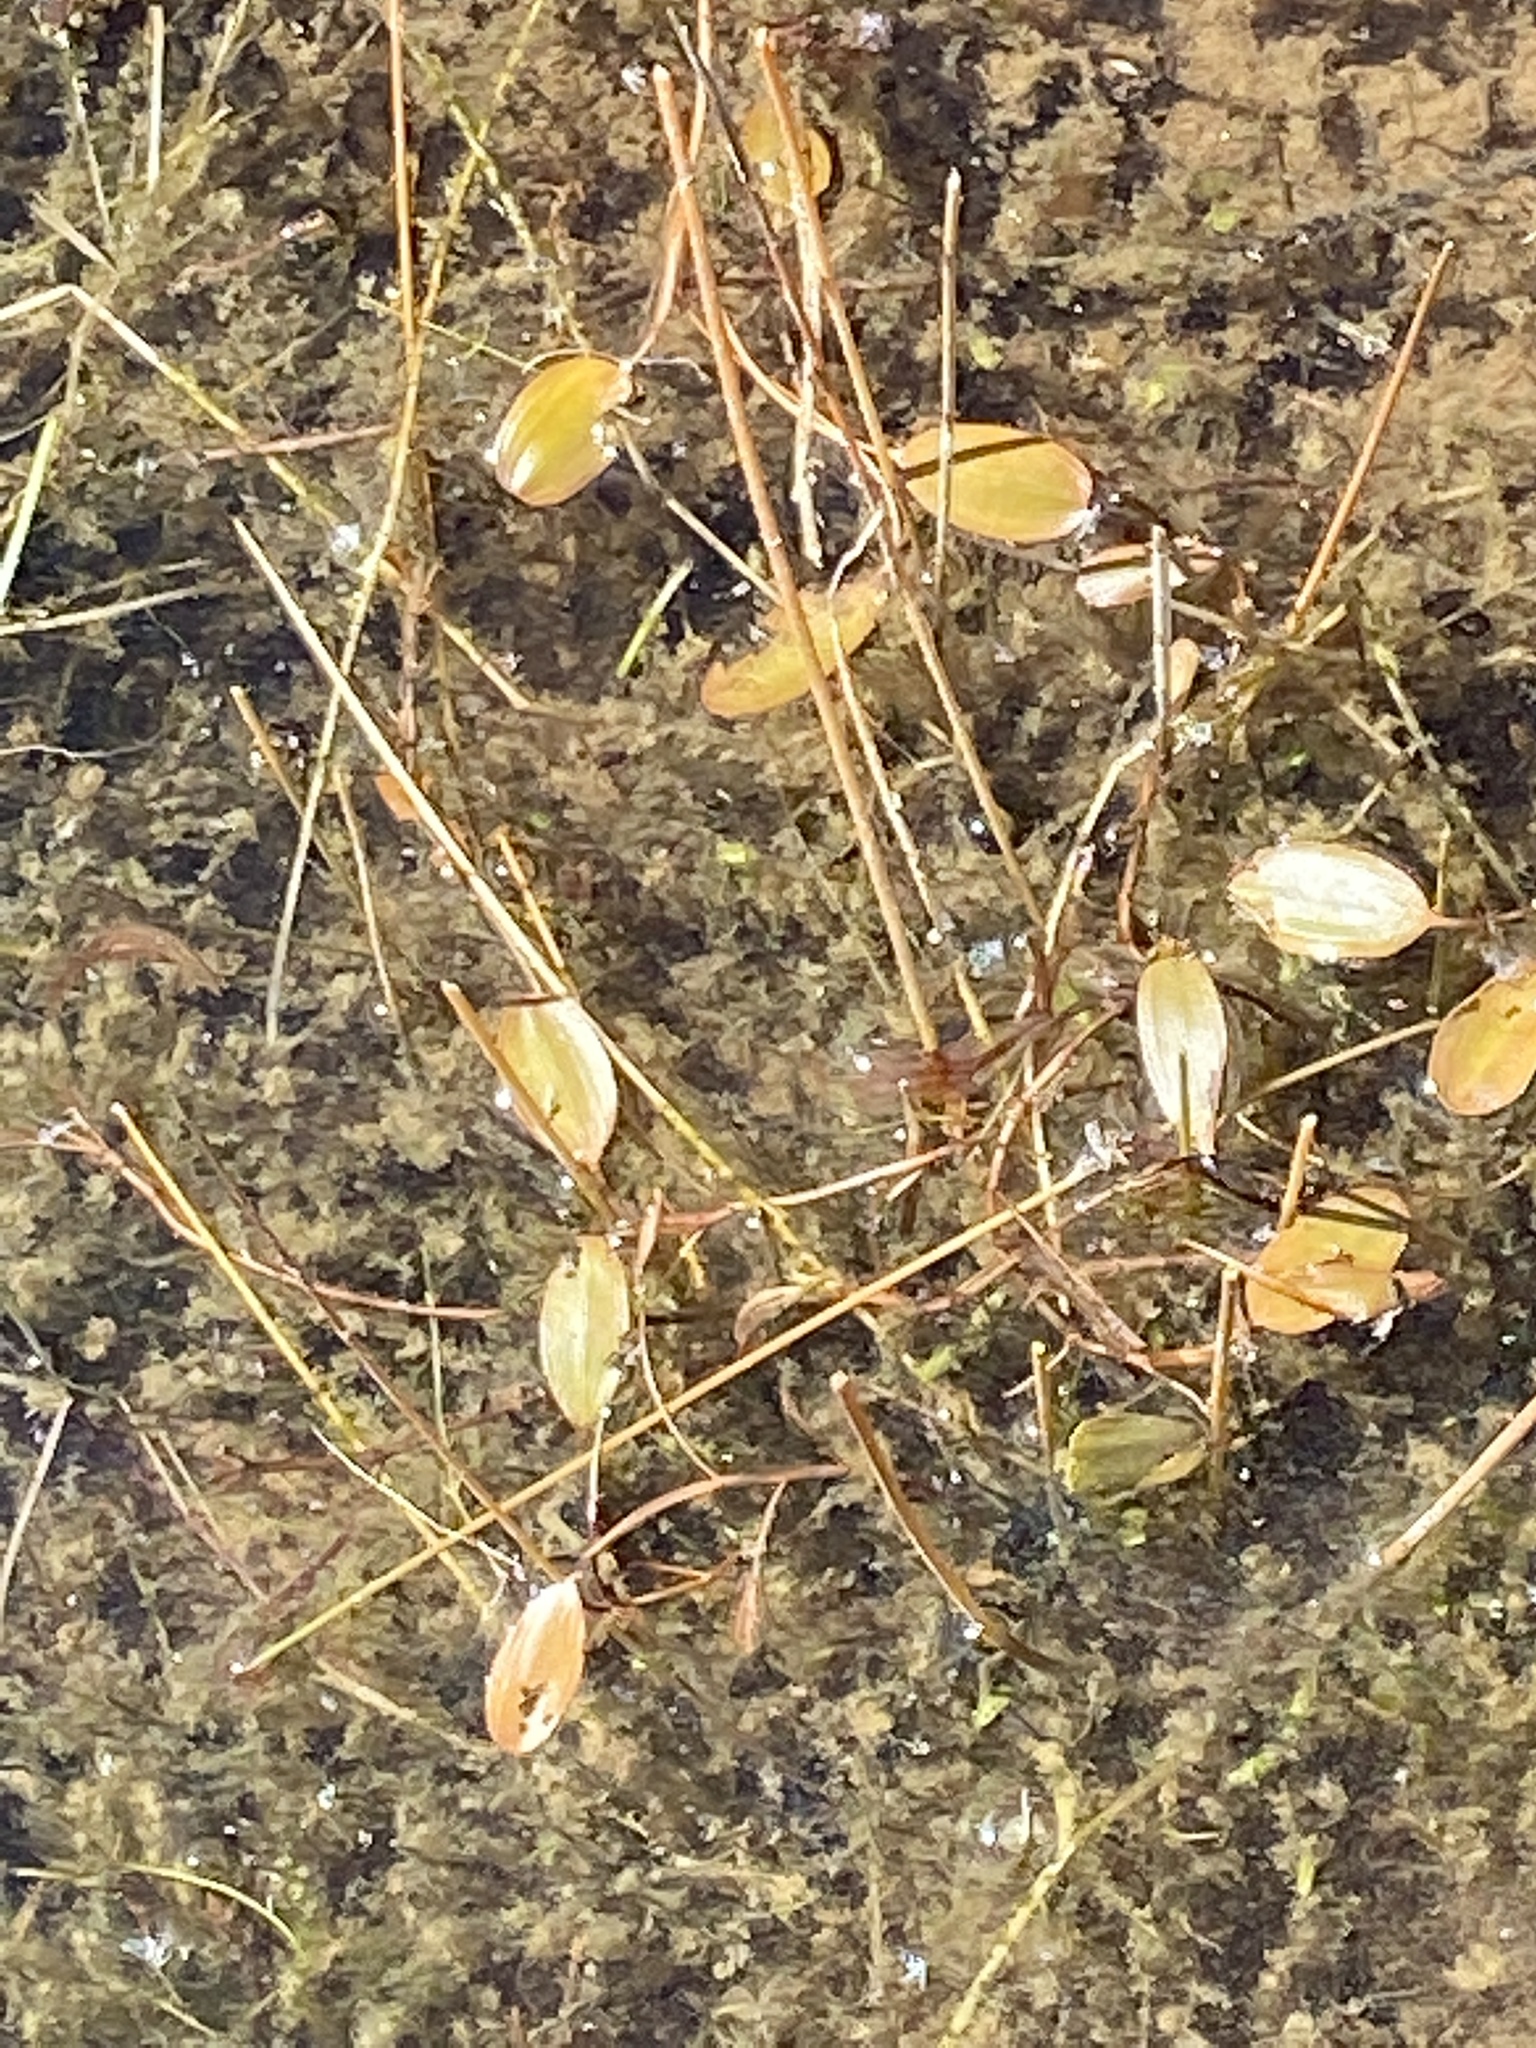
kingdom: Plantae
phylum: Tracheophyta
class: Liliopsida
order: Alismatales
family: Potamogetonaceae
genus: Potamogeton
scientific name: Potamogeton cheesemanii
